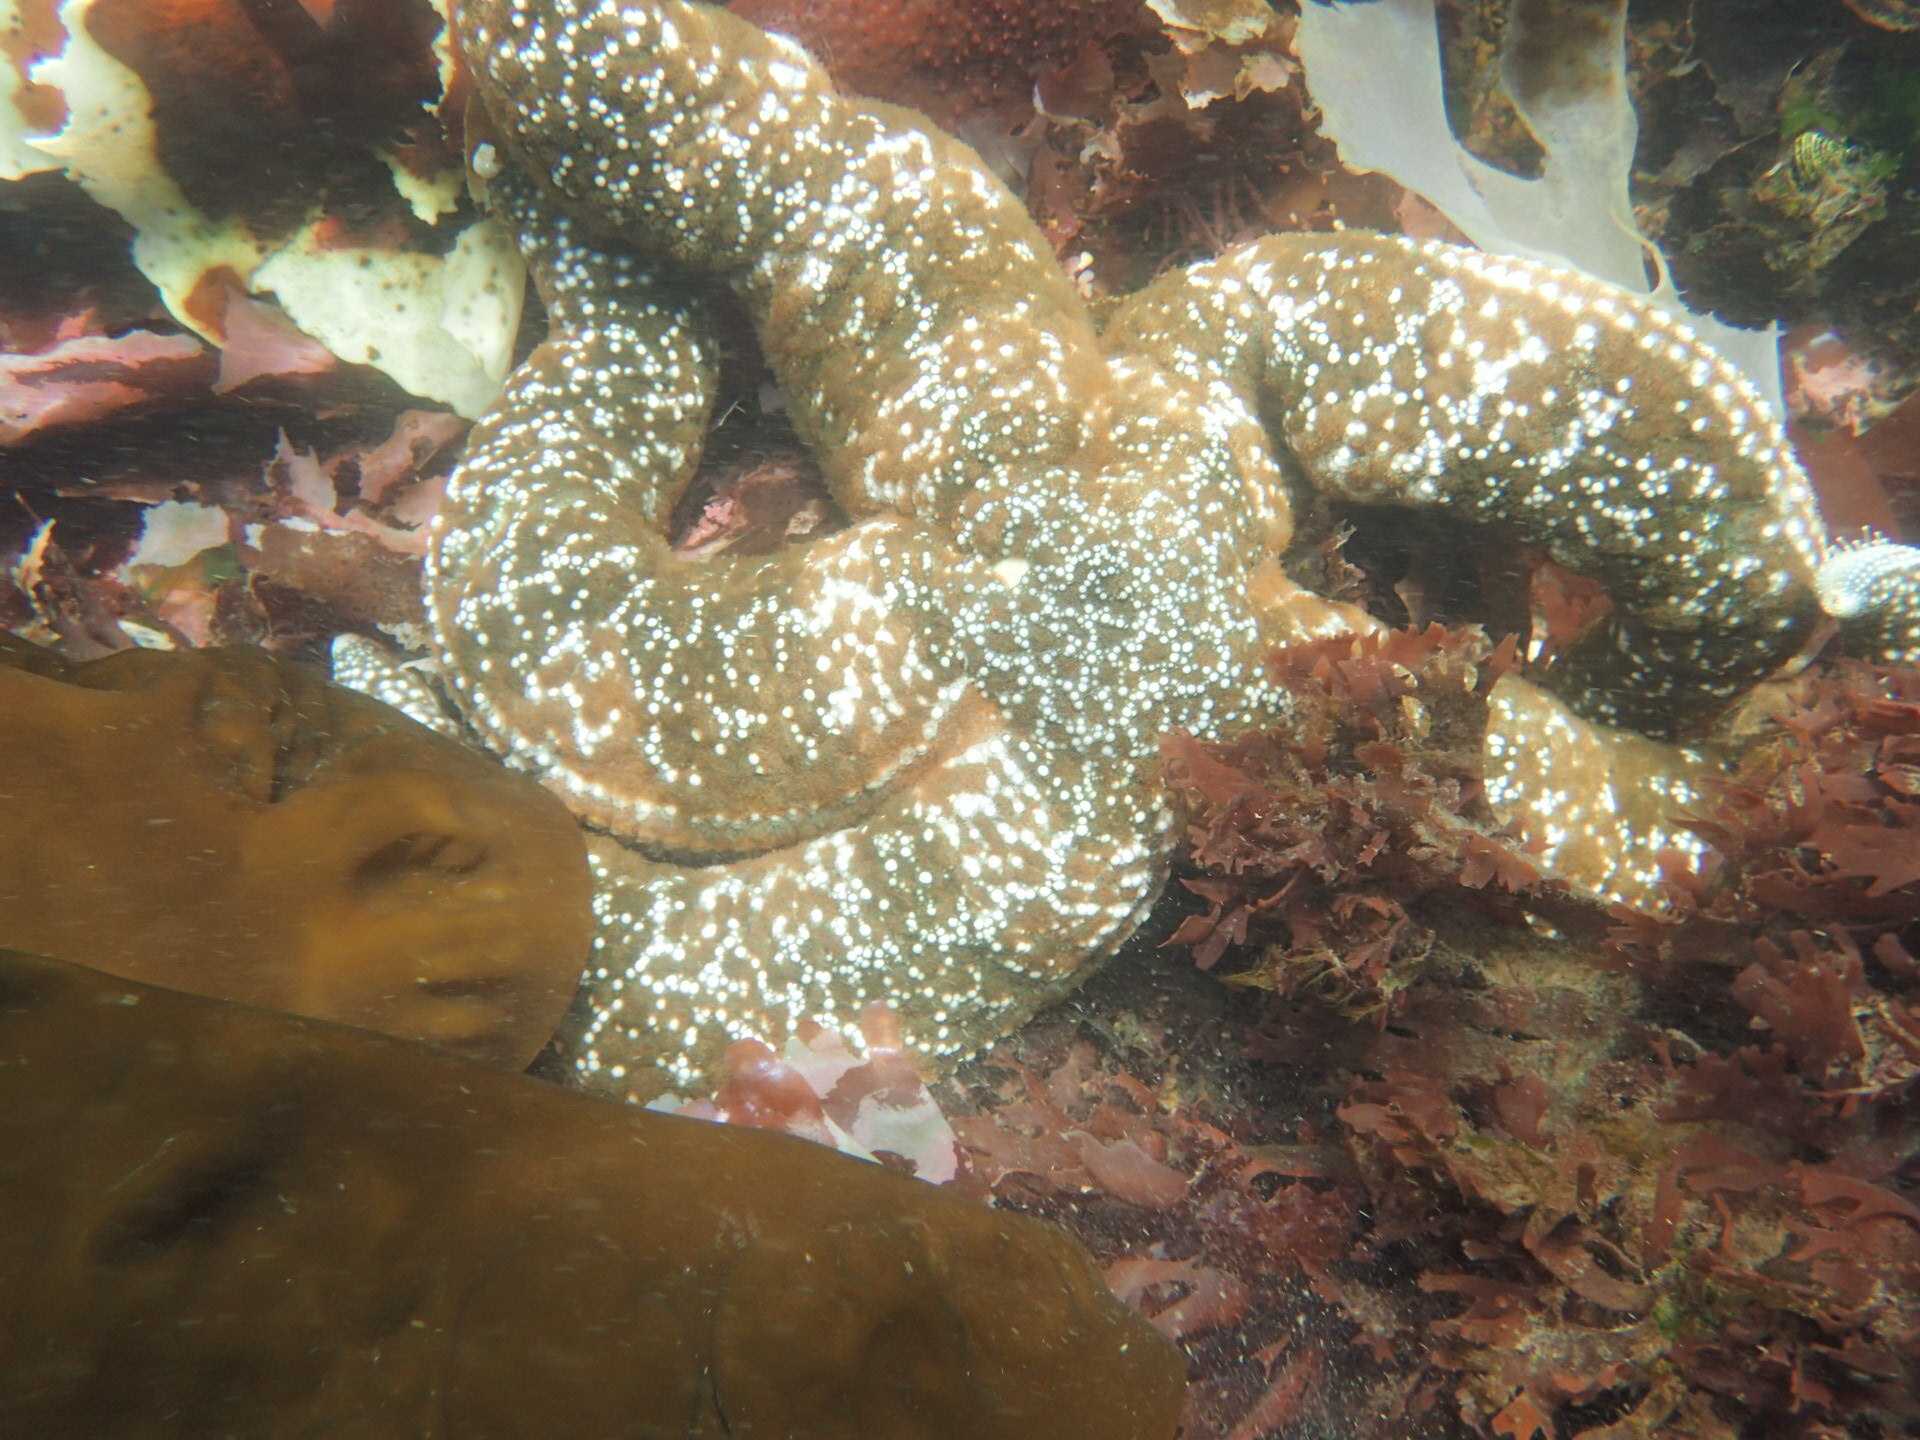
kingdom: Animalia
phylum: Echinodermata
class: Asteroidea
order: Forcipulatida
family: Asteriidae
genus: Evasterias
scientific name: Evasterias troschelii
